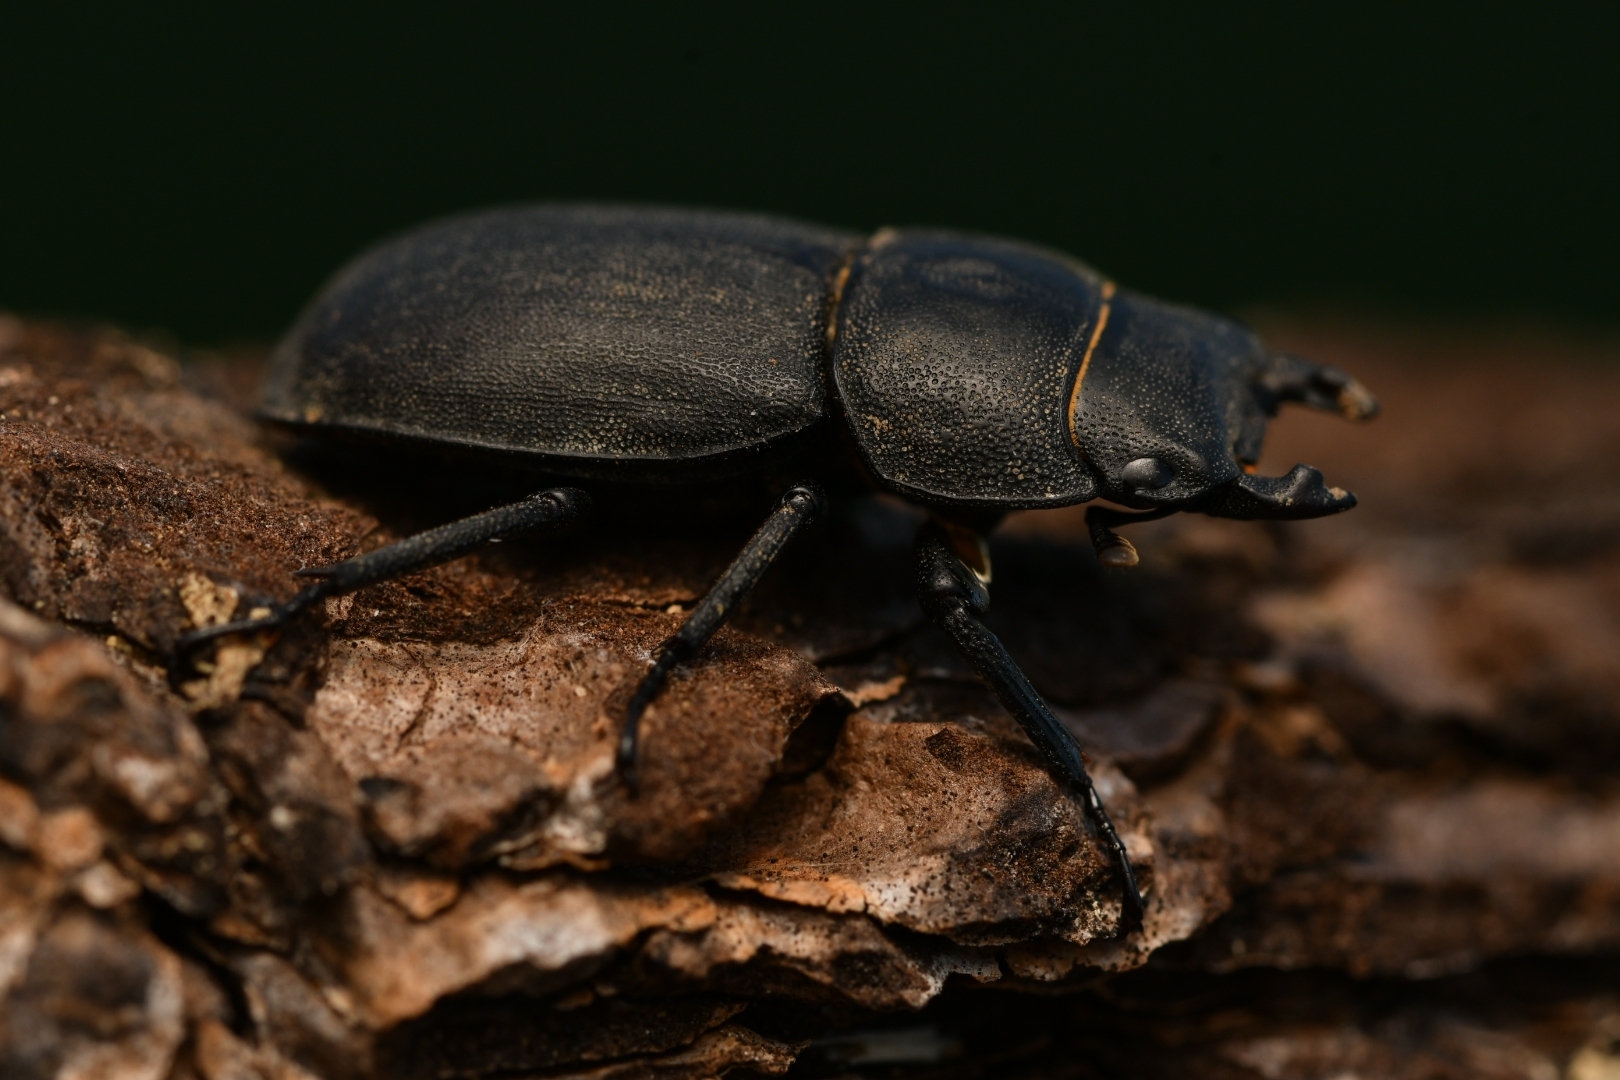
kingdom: Animalia
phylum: Arthropoda
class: Insecta
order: Coleoptera
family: Lucanidae
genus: Dorcus
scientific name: Dorcus parallelipipedus
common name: Lesser stag beetle
